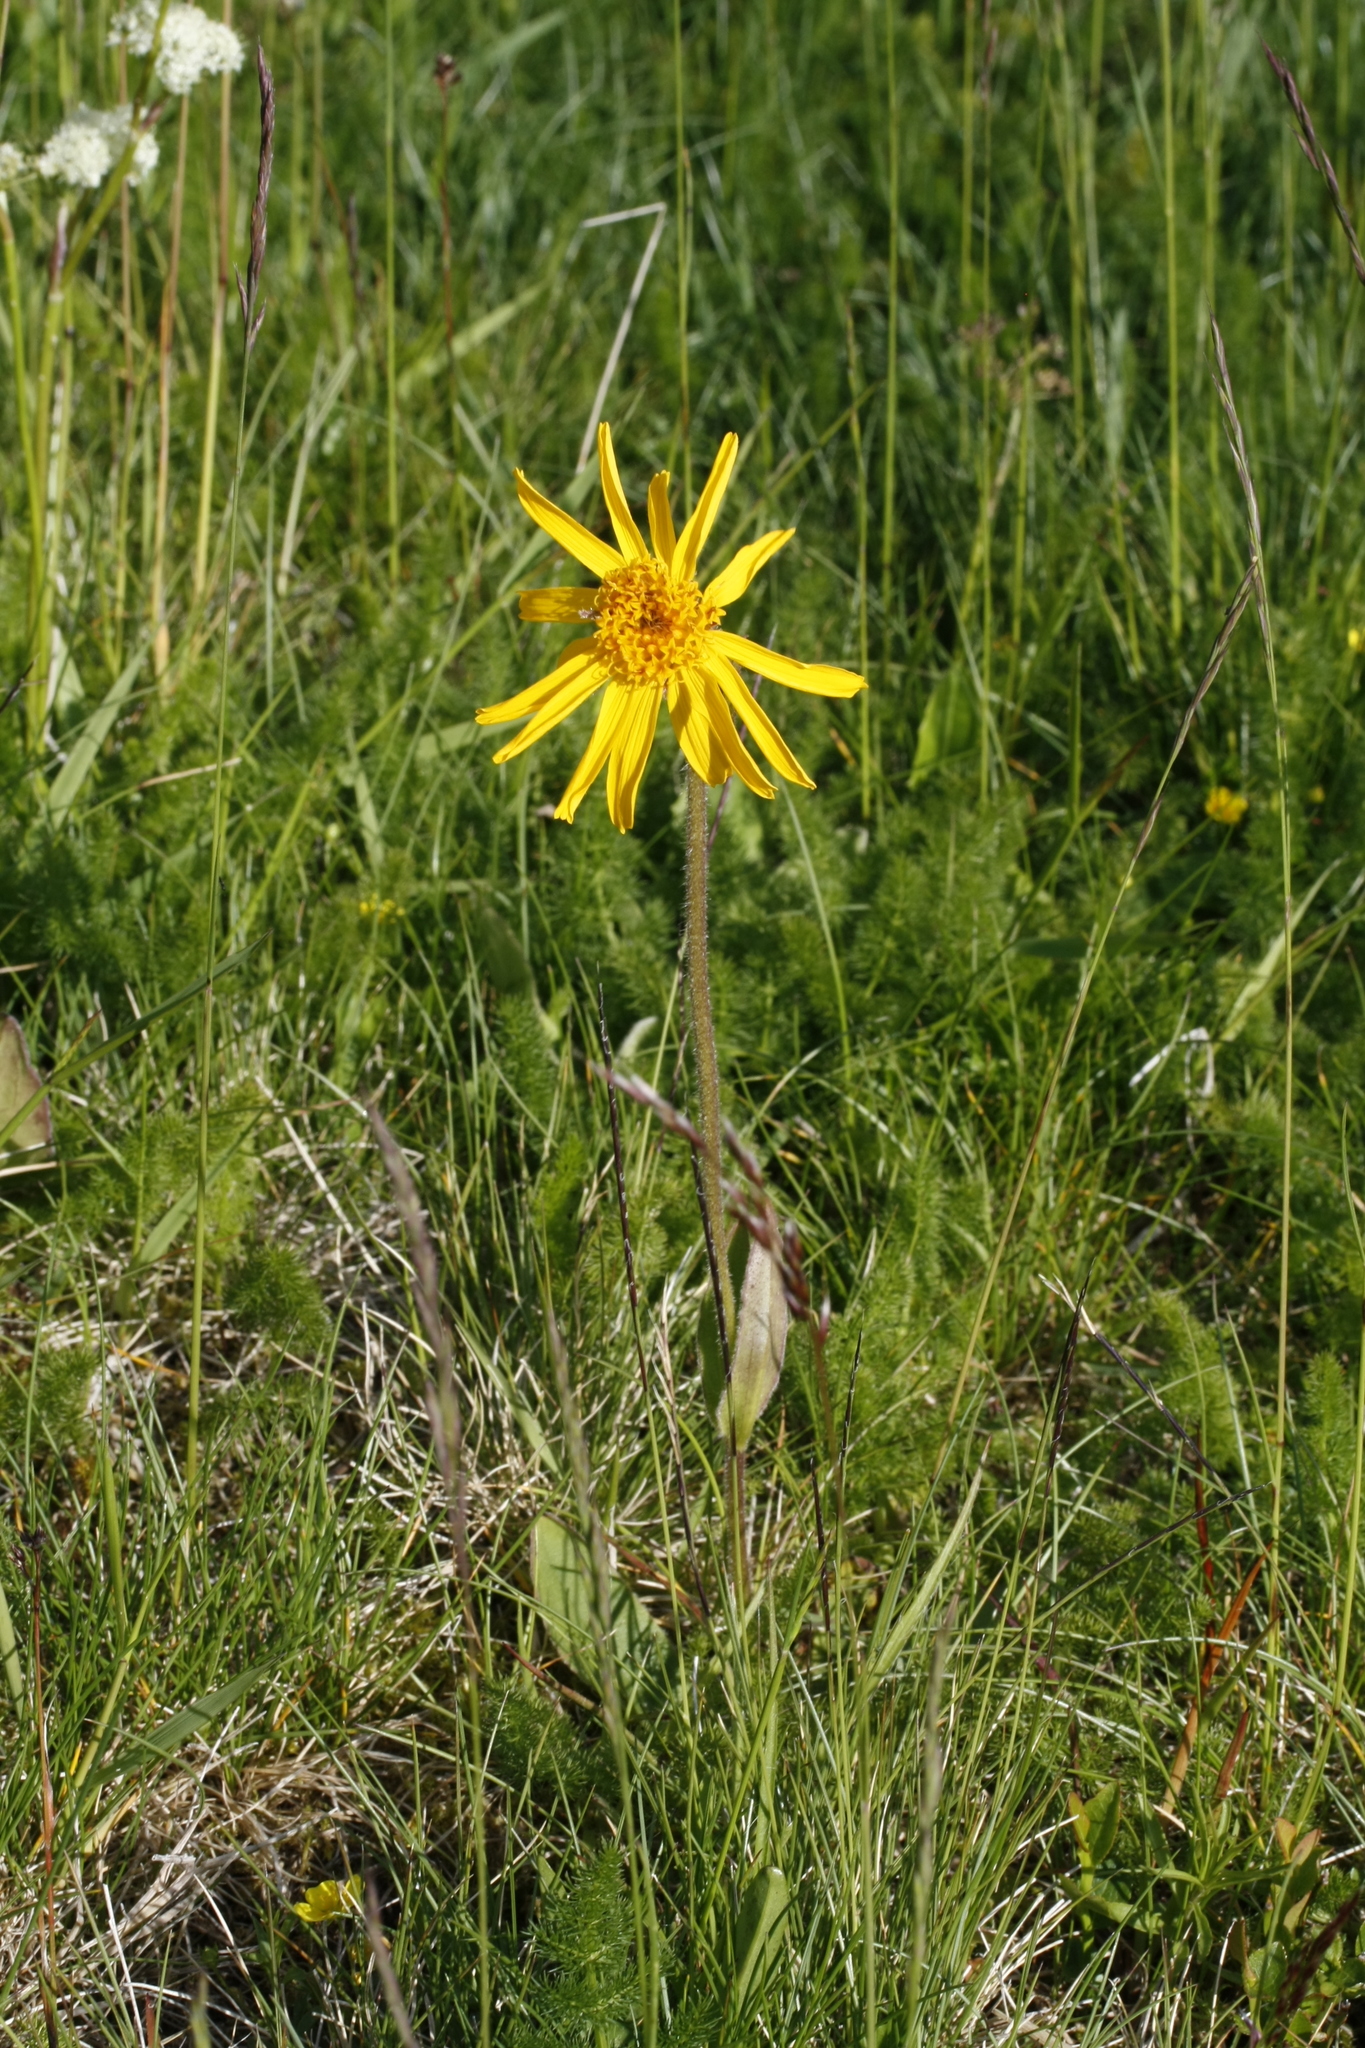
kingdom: Plantae
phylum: Tracheophyta
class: Magnoliopsida
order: Asterales
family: Asteraceae
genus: Arnica
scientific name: Arnica montana
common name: Leopard's bane
